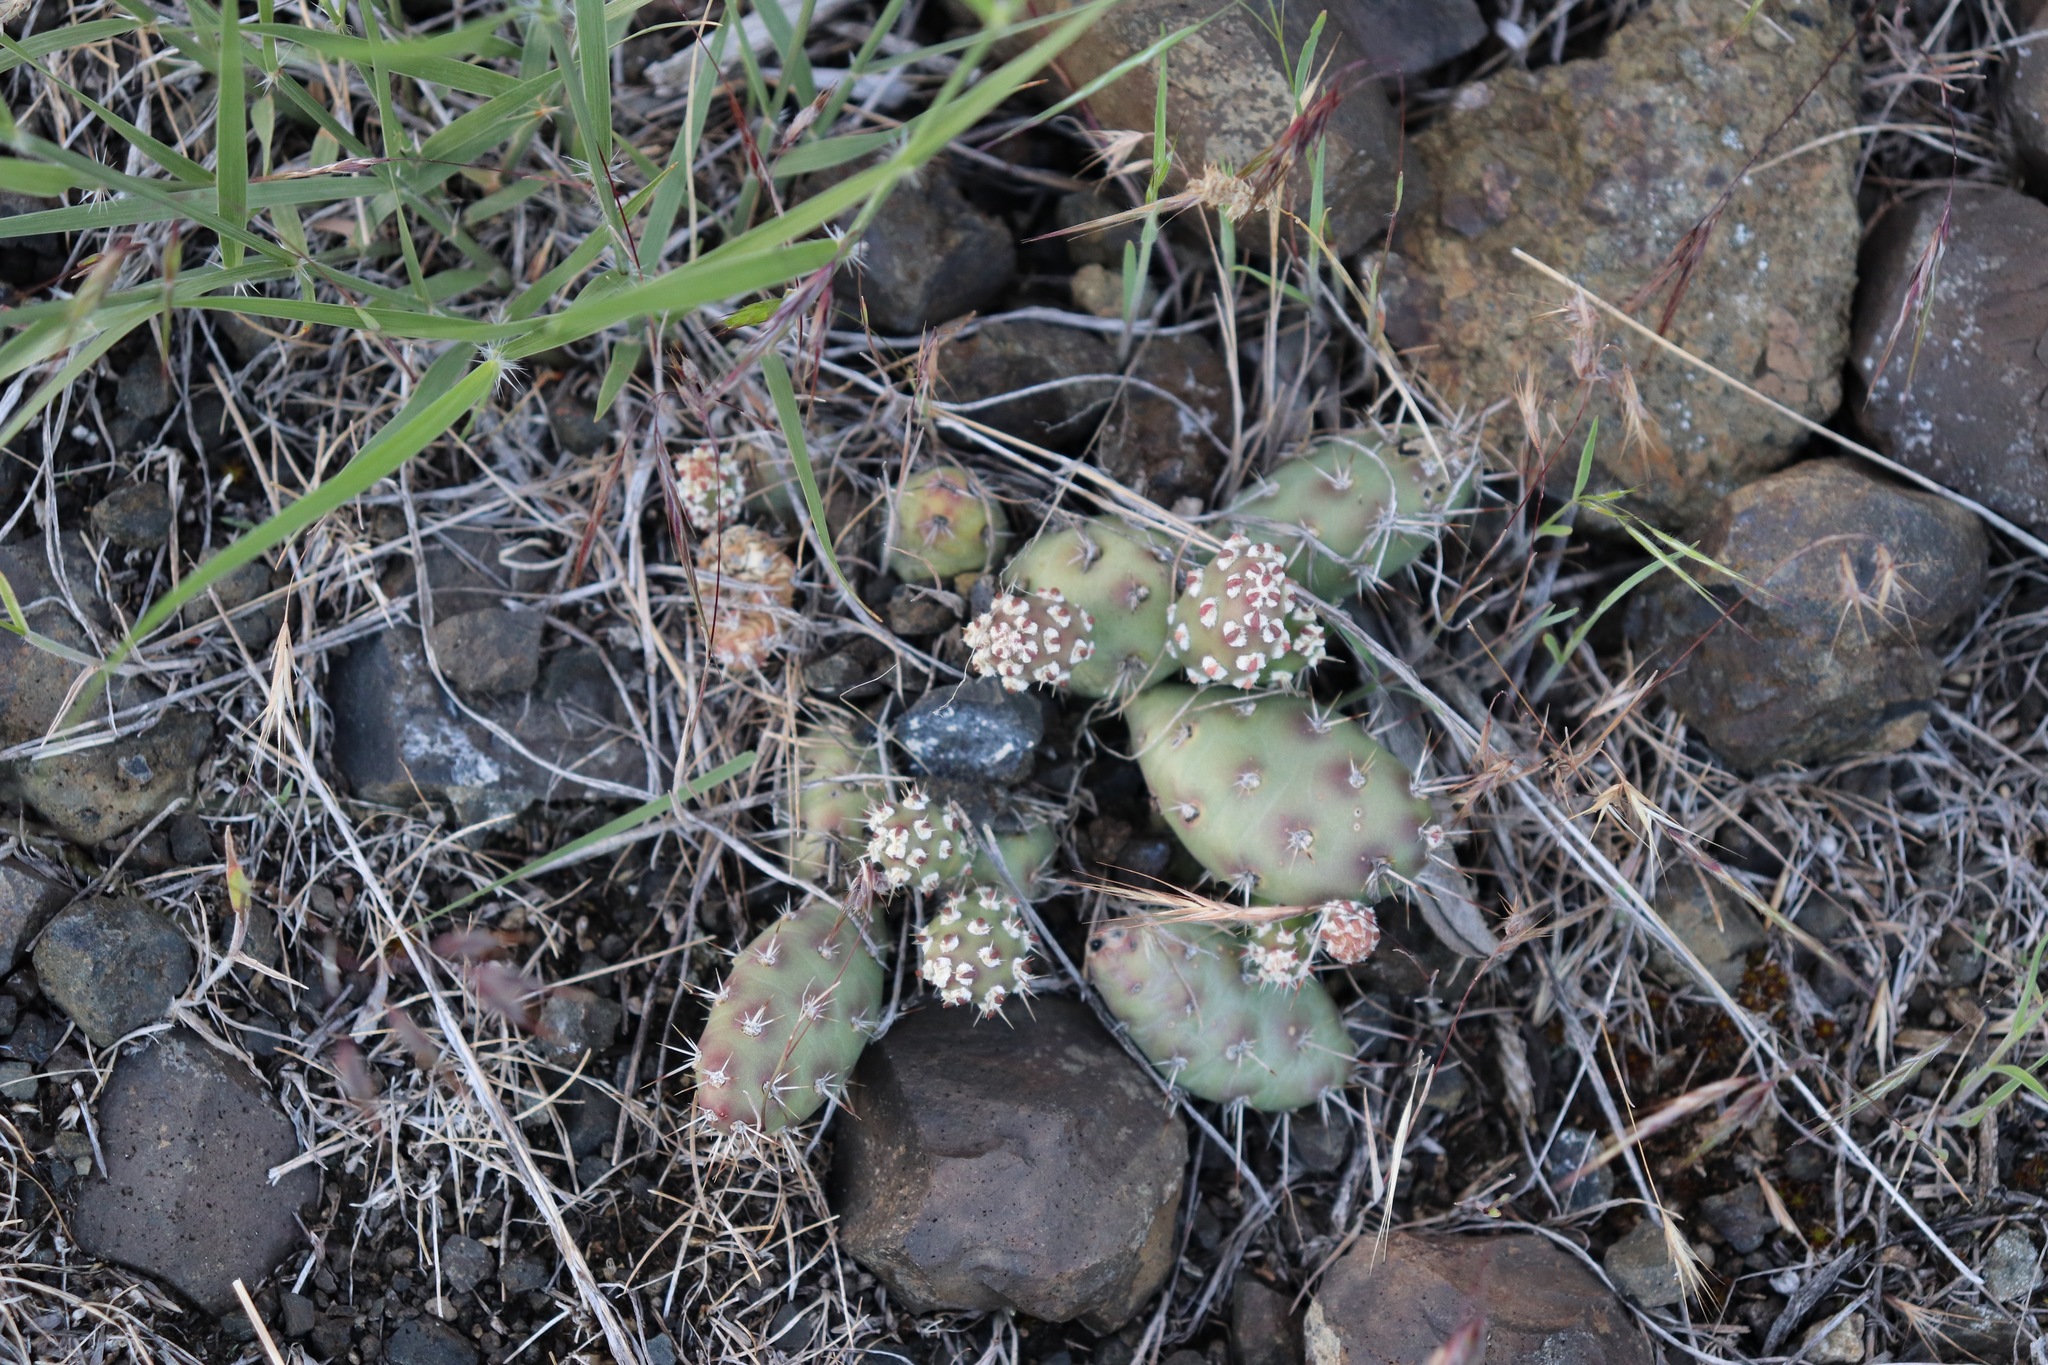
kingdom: Plantae
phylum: Tracheophyta
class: Magnoliopsida
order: Caryophyllales
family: Cactaceae
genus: Opuntia
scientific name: Opuntia fragilis
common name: Brittle cactus
